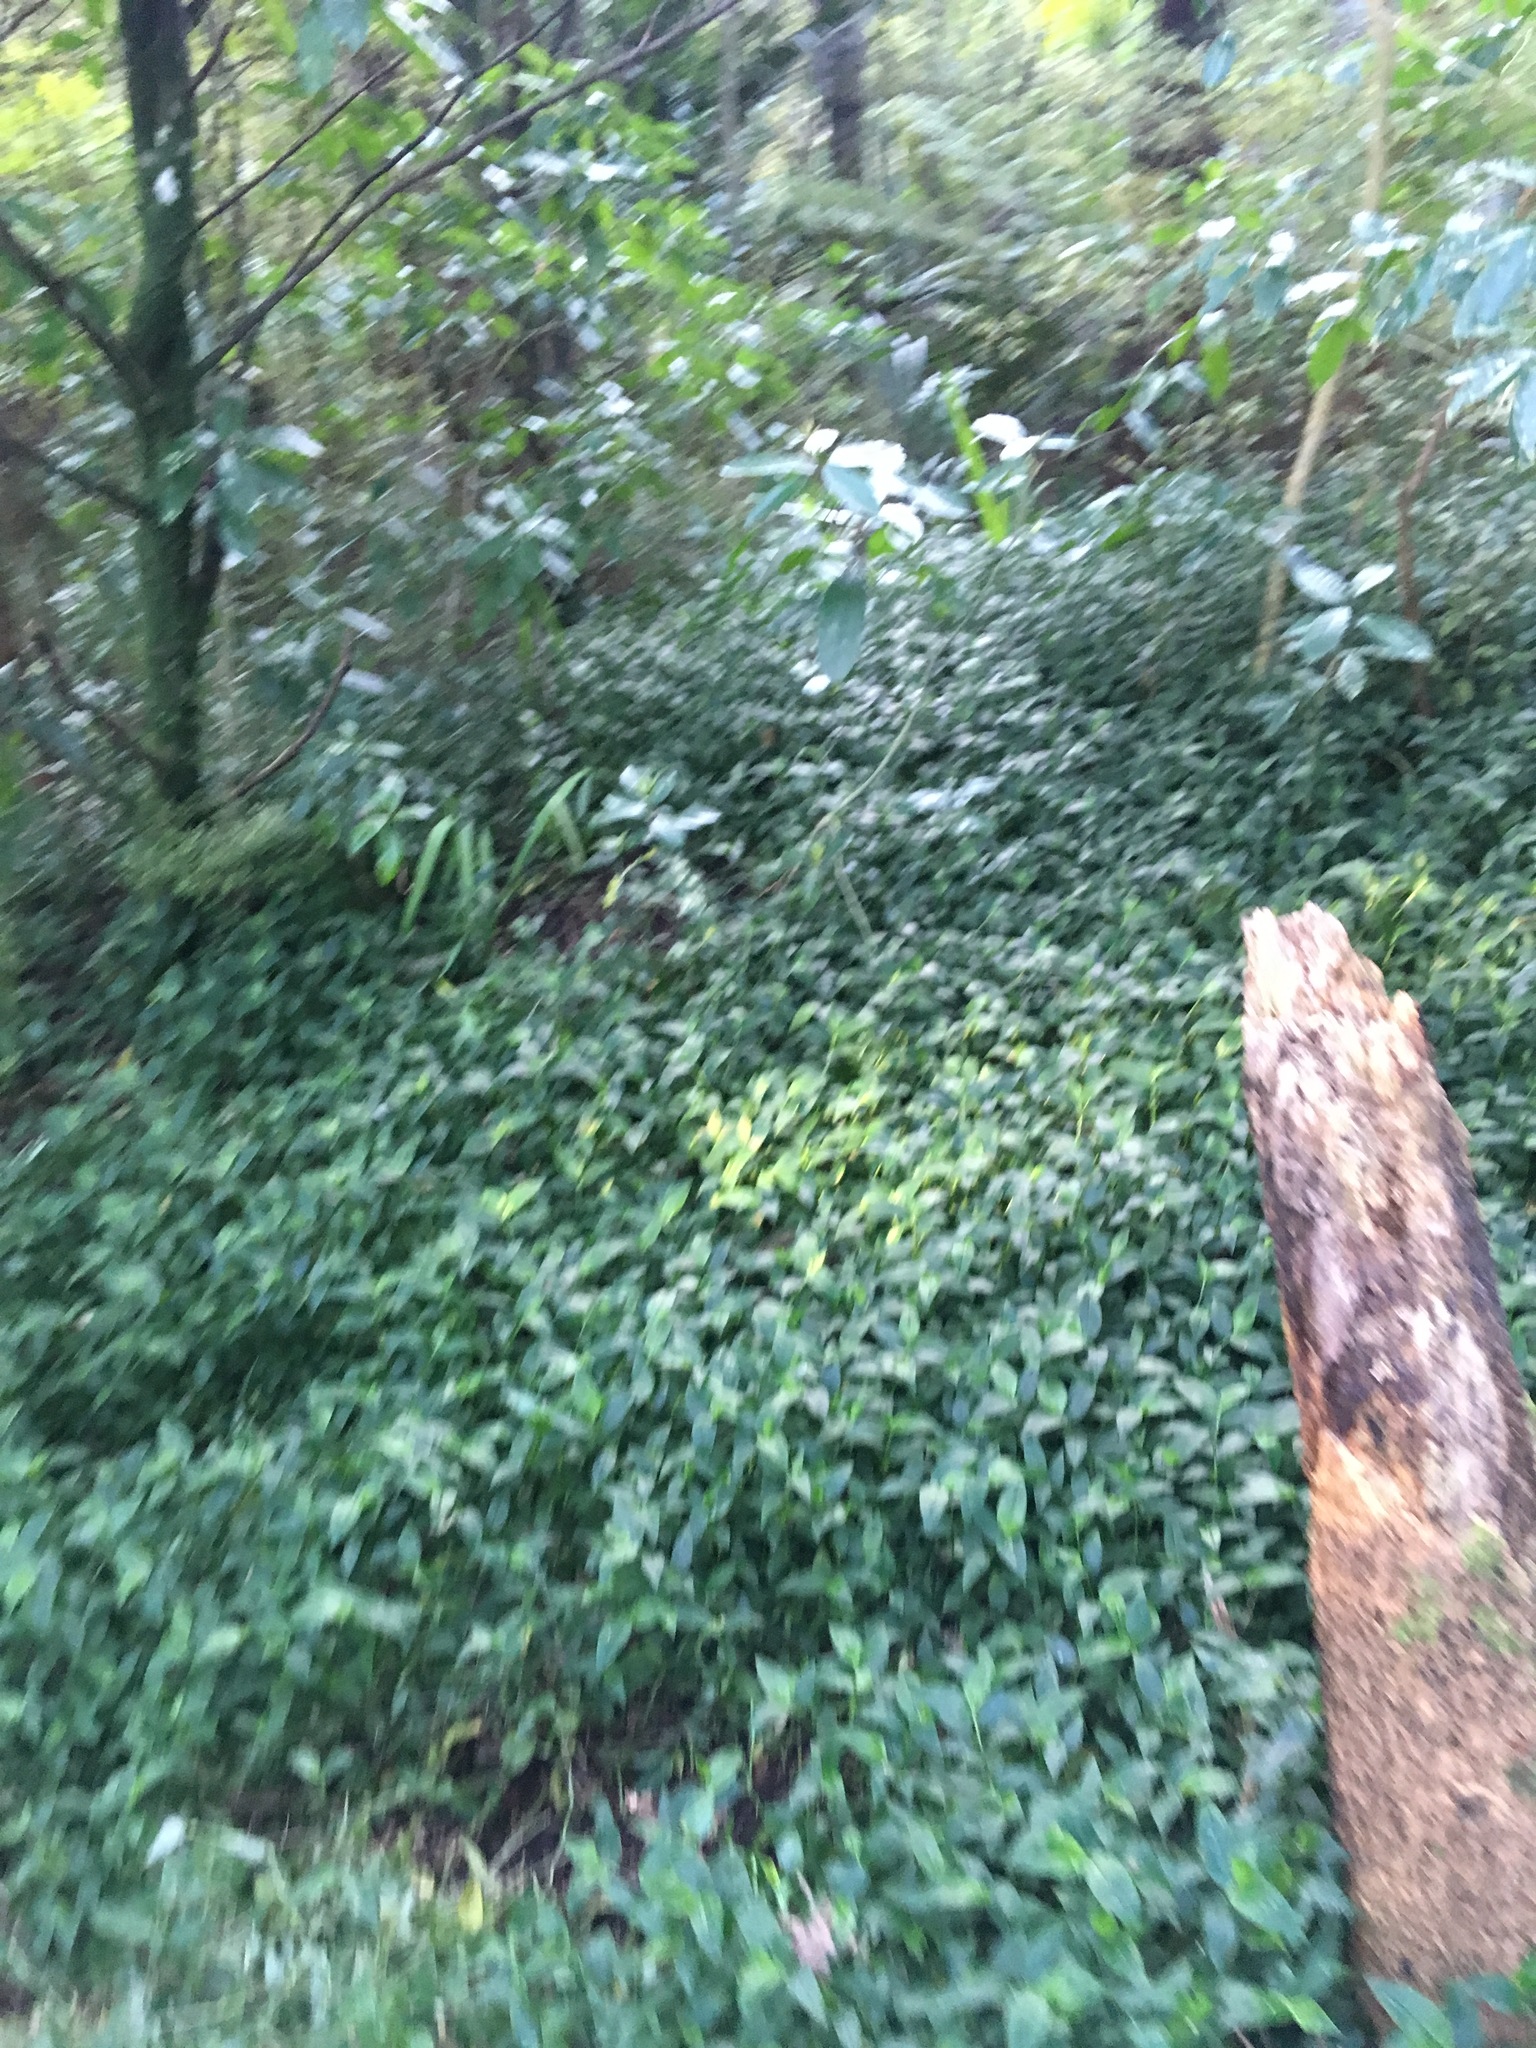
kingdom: Plantae
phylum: Tracheophyta
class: Liliopsida
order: Commelinales
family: Commelinaceae
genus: Tradescantia
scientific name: Tradescantia fluminensis
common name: Wandering-jew
